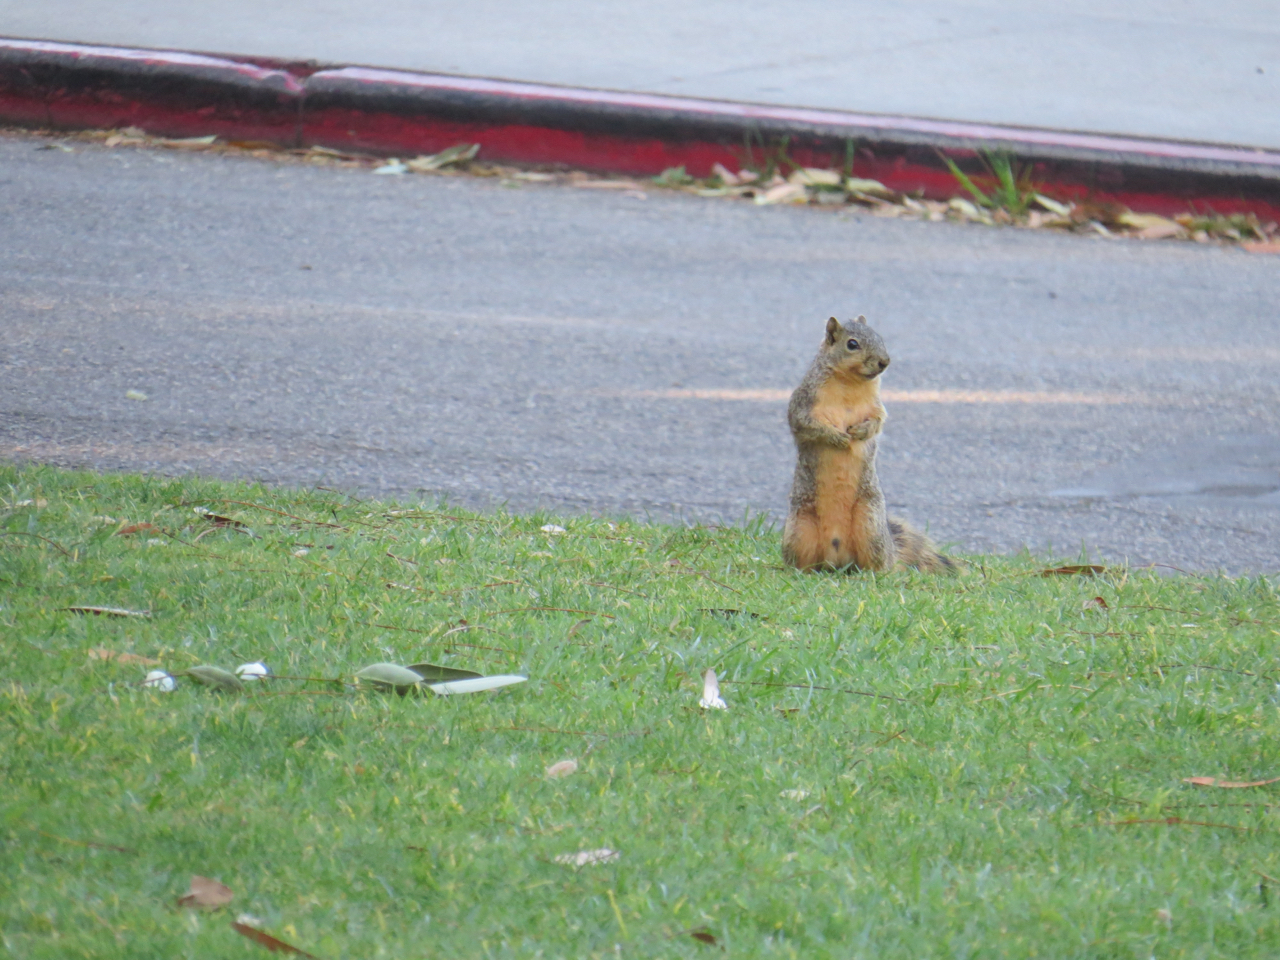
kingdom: Animalia
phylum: Chordata
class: Mammalia
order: Rodentia
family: Sciuridae
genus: Sciurus
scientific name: Sciurus niger
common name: Fox squirrel
